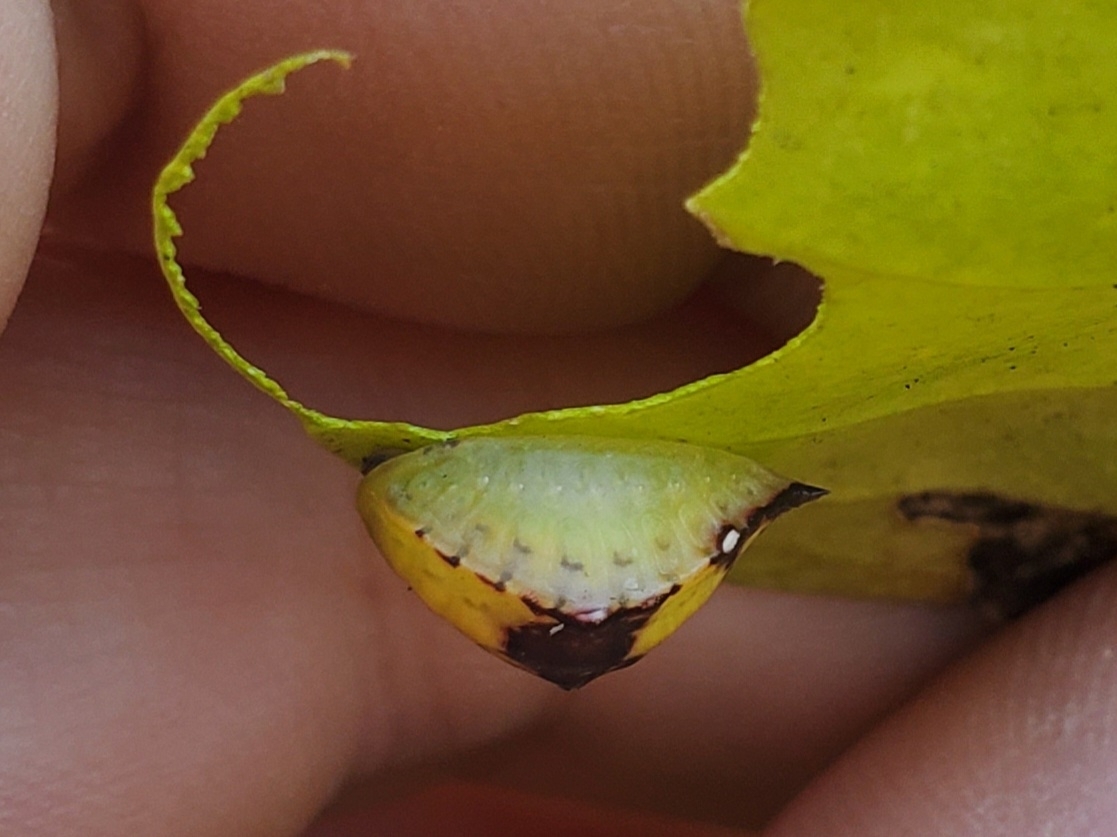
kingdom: Animalia
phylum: Arthropoda
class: Insecta
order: Lepidoptera
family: Limacodidae
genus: Prolimacodes
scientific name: Prolimacodes badia
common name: Skiff moth
